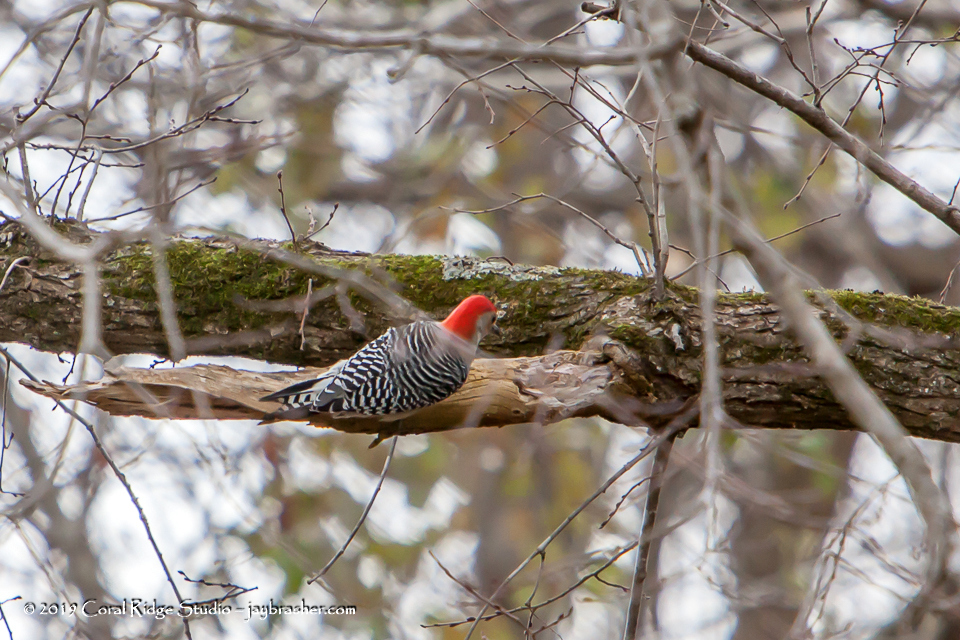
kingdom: Animalia
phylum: Chordata
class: Aves
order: Piciformes
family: Picidae
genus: Melanerpes
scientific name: Melanerpes carolinus
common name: Red-bellied woodpecker
